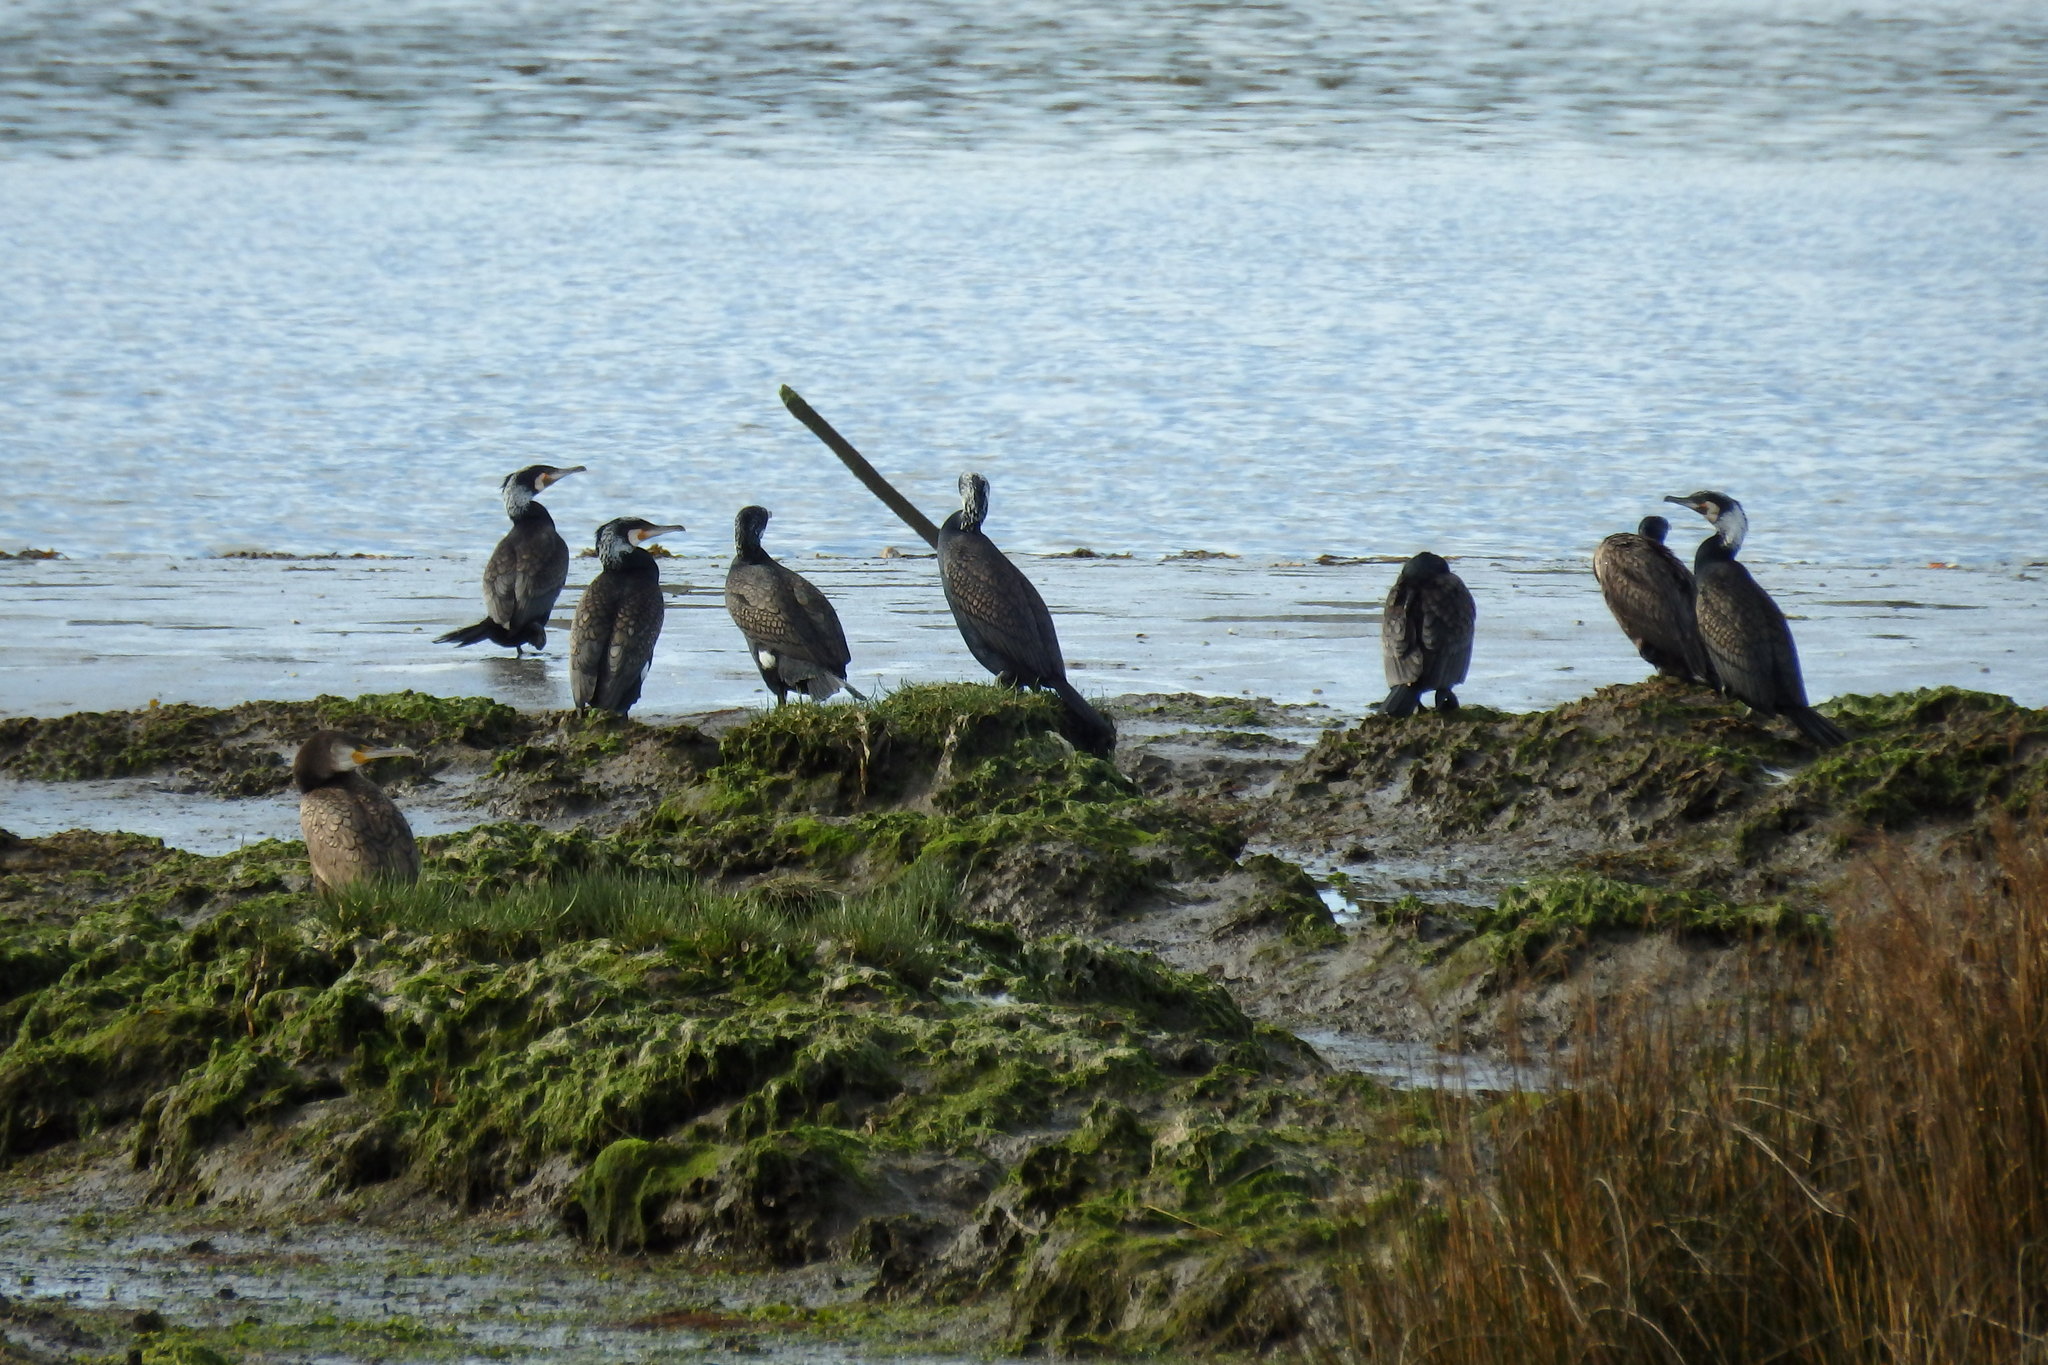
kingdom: Animalia
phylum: Chordata
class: Aves
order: Suliformes
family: Phalacrocoracidae
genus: Phalacrocorax
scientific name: Phalacrocorax carbo
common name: Great cormorant
